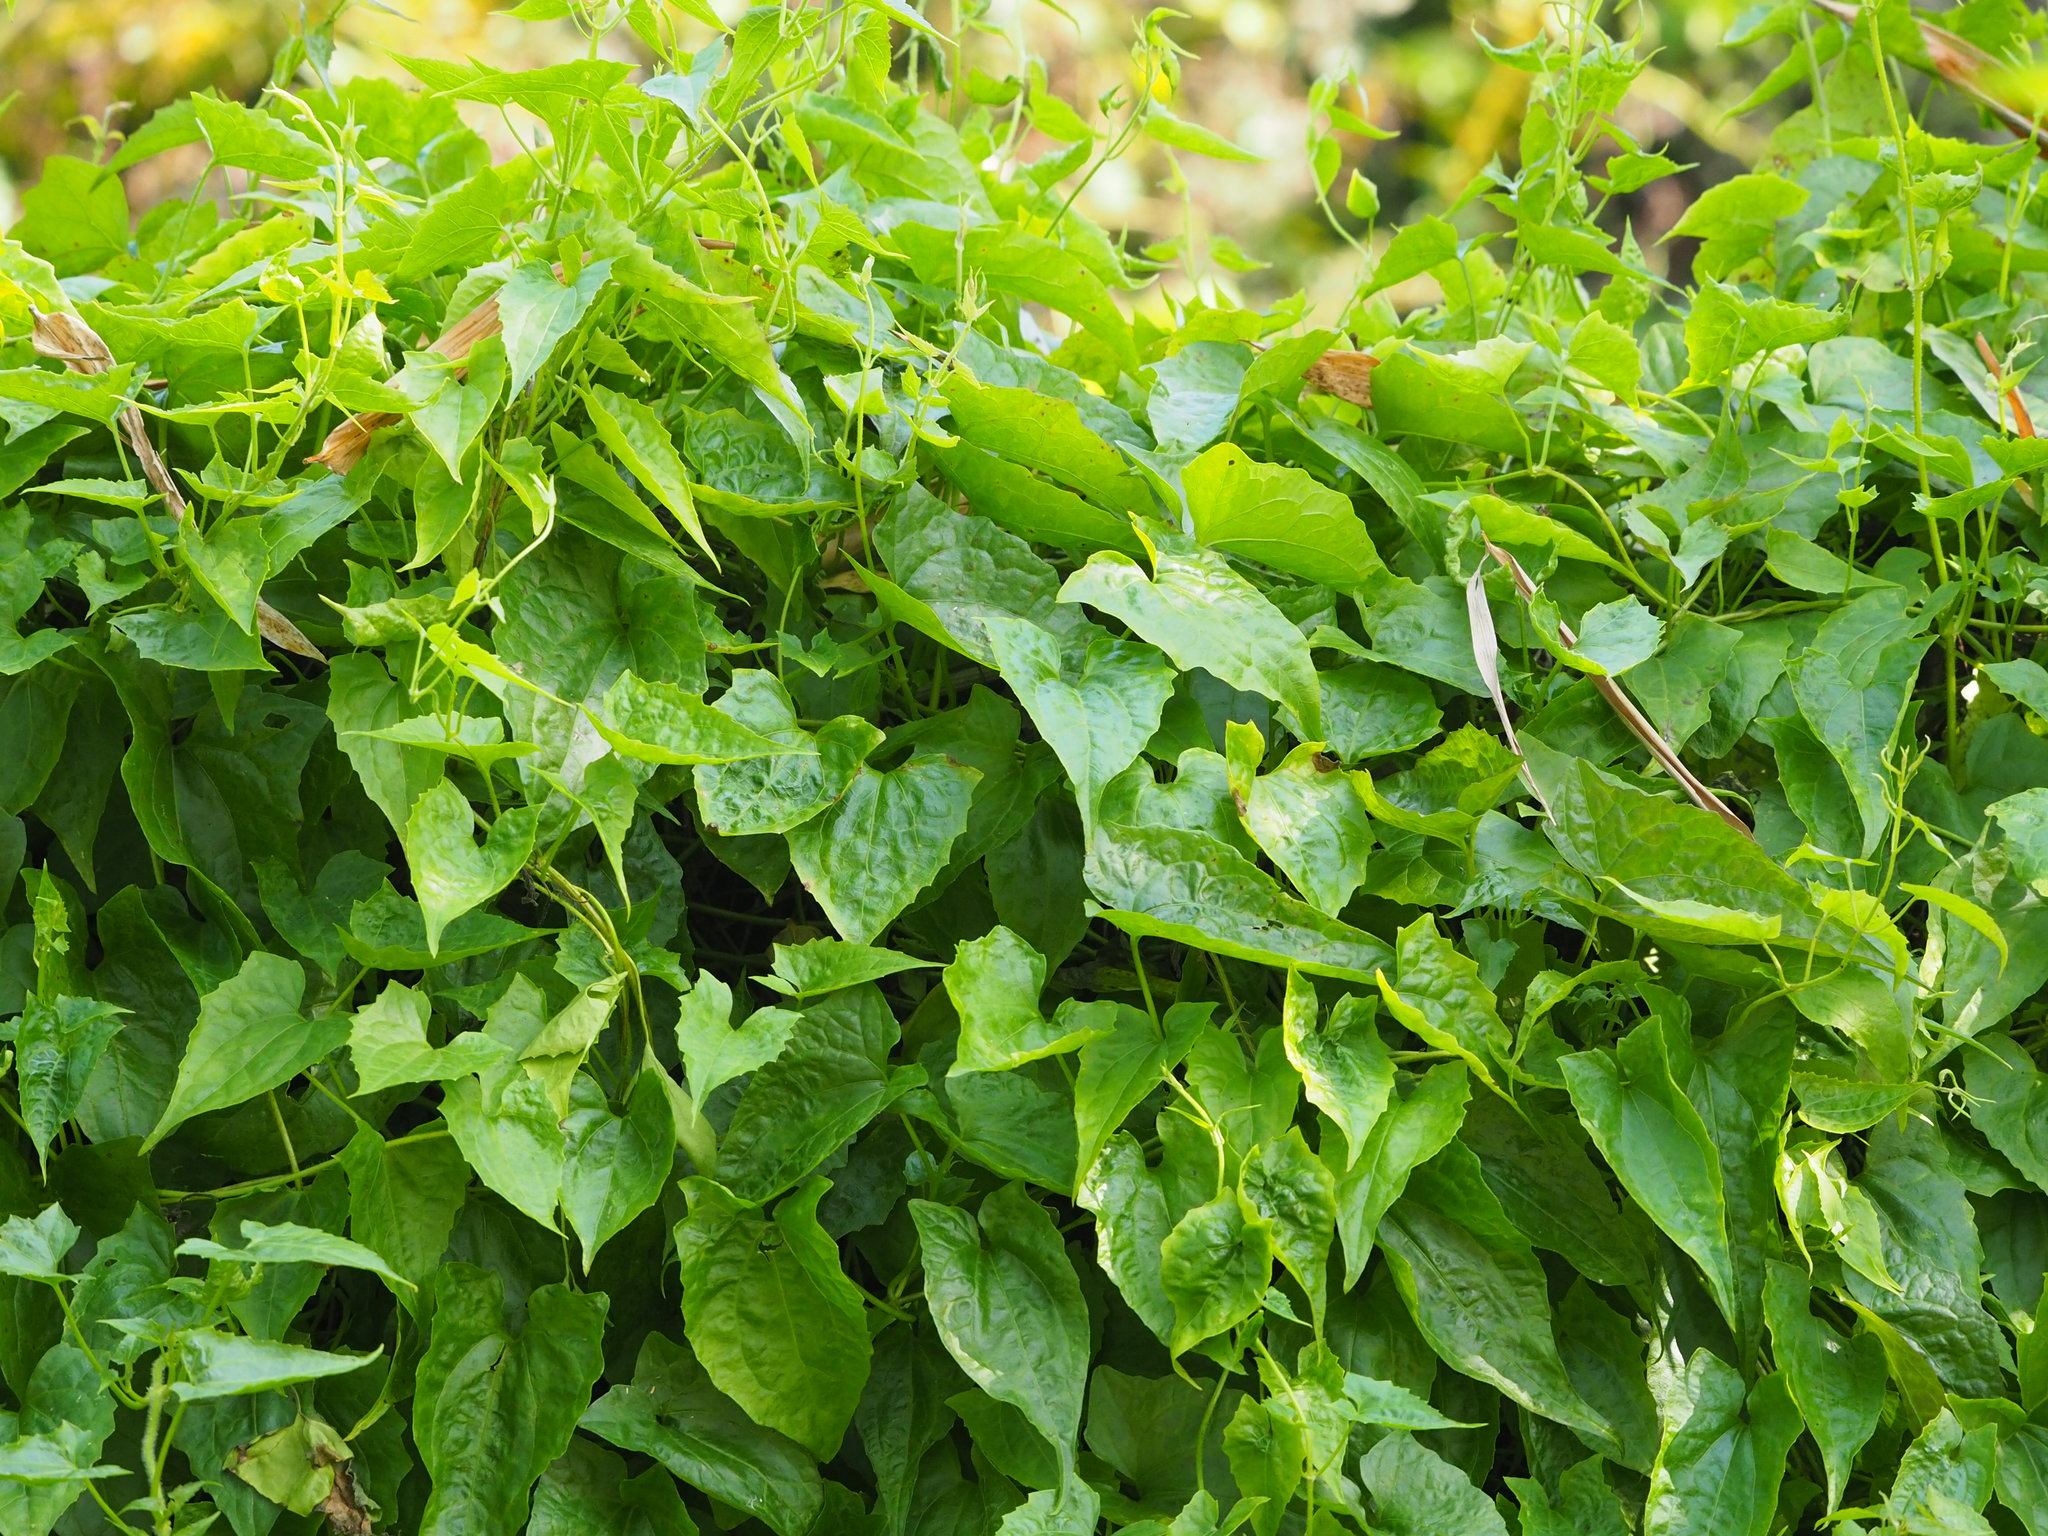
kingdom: Plantae
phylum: Tracheophyta
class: Magnoliopsida
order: Asterales
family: Asteraceae
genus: Mikania
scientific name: Mikania micrantha
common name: Mile-a-minute
